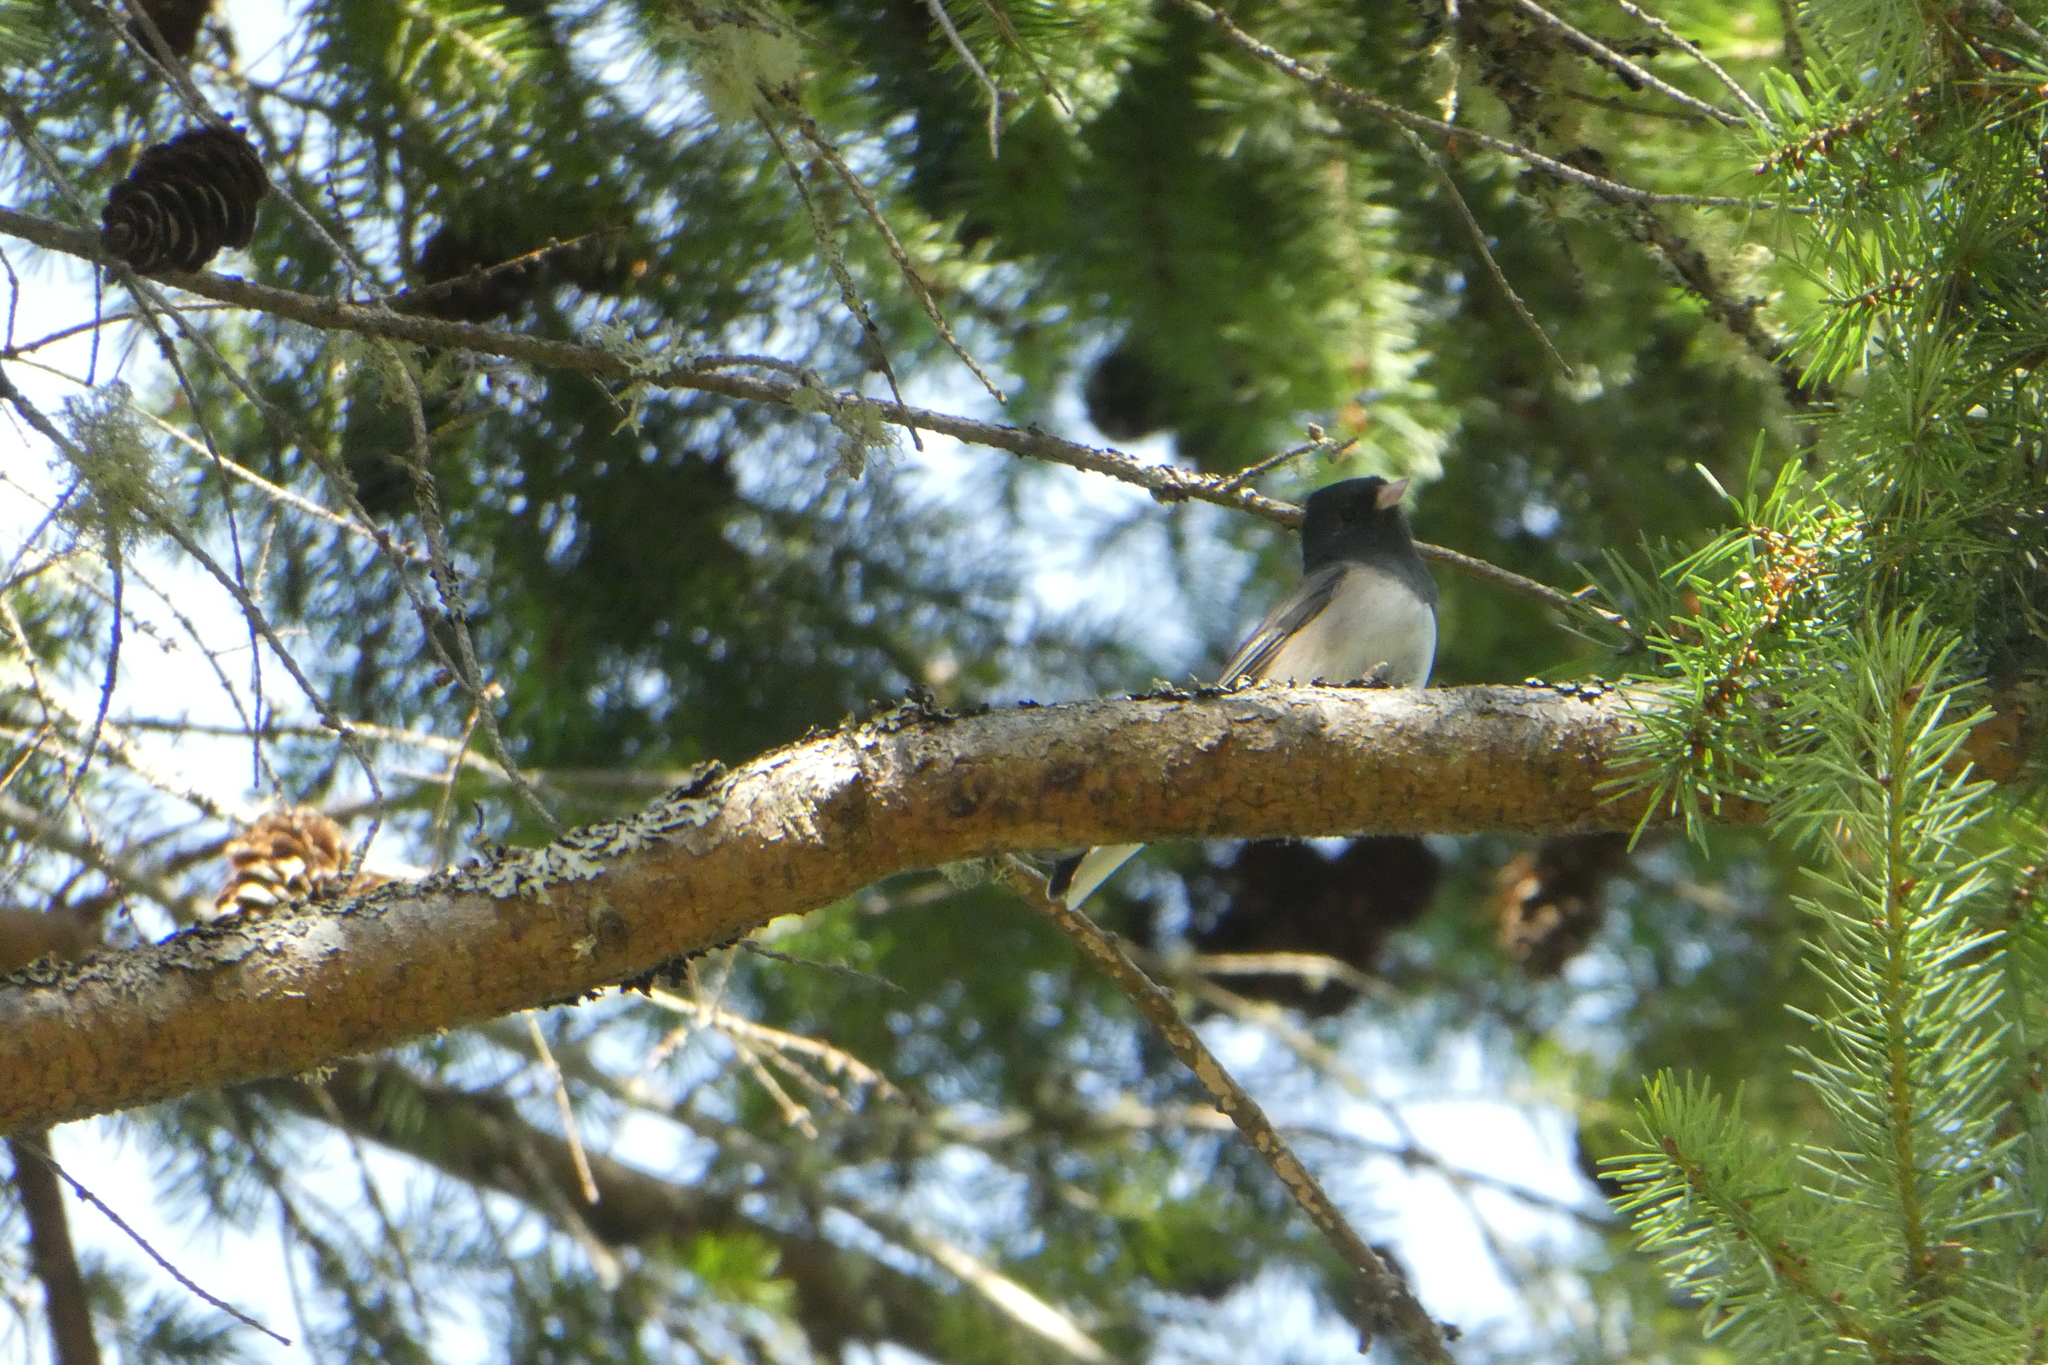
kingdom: Animalia
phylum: Chordata
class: Aves
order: Passeriformes
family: Passerellidae
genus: Junco
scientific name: Junco hyemalis
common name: Dark-eyed junco
